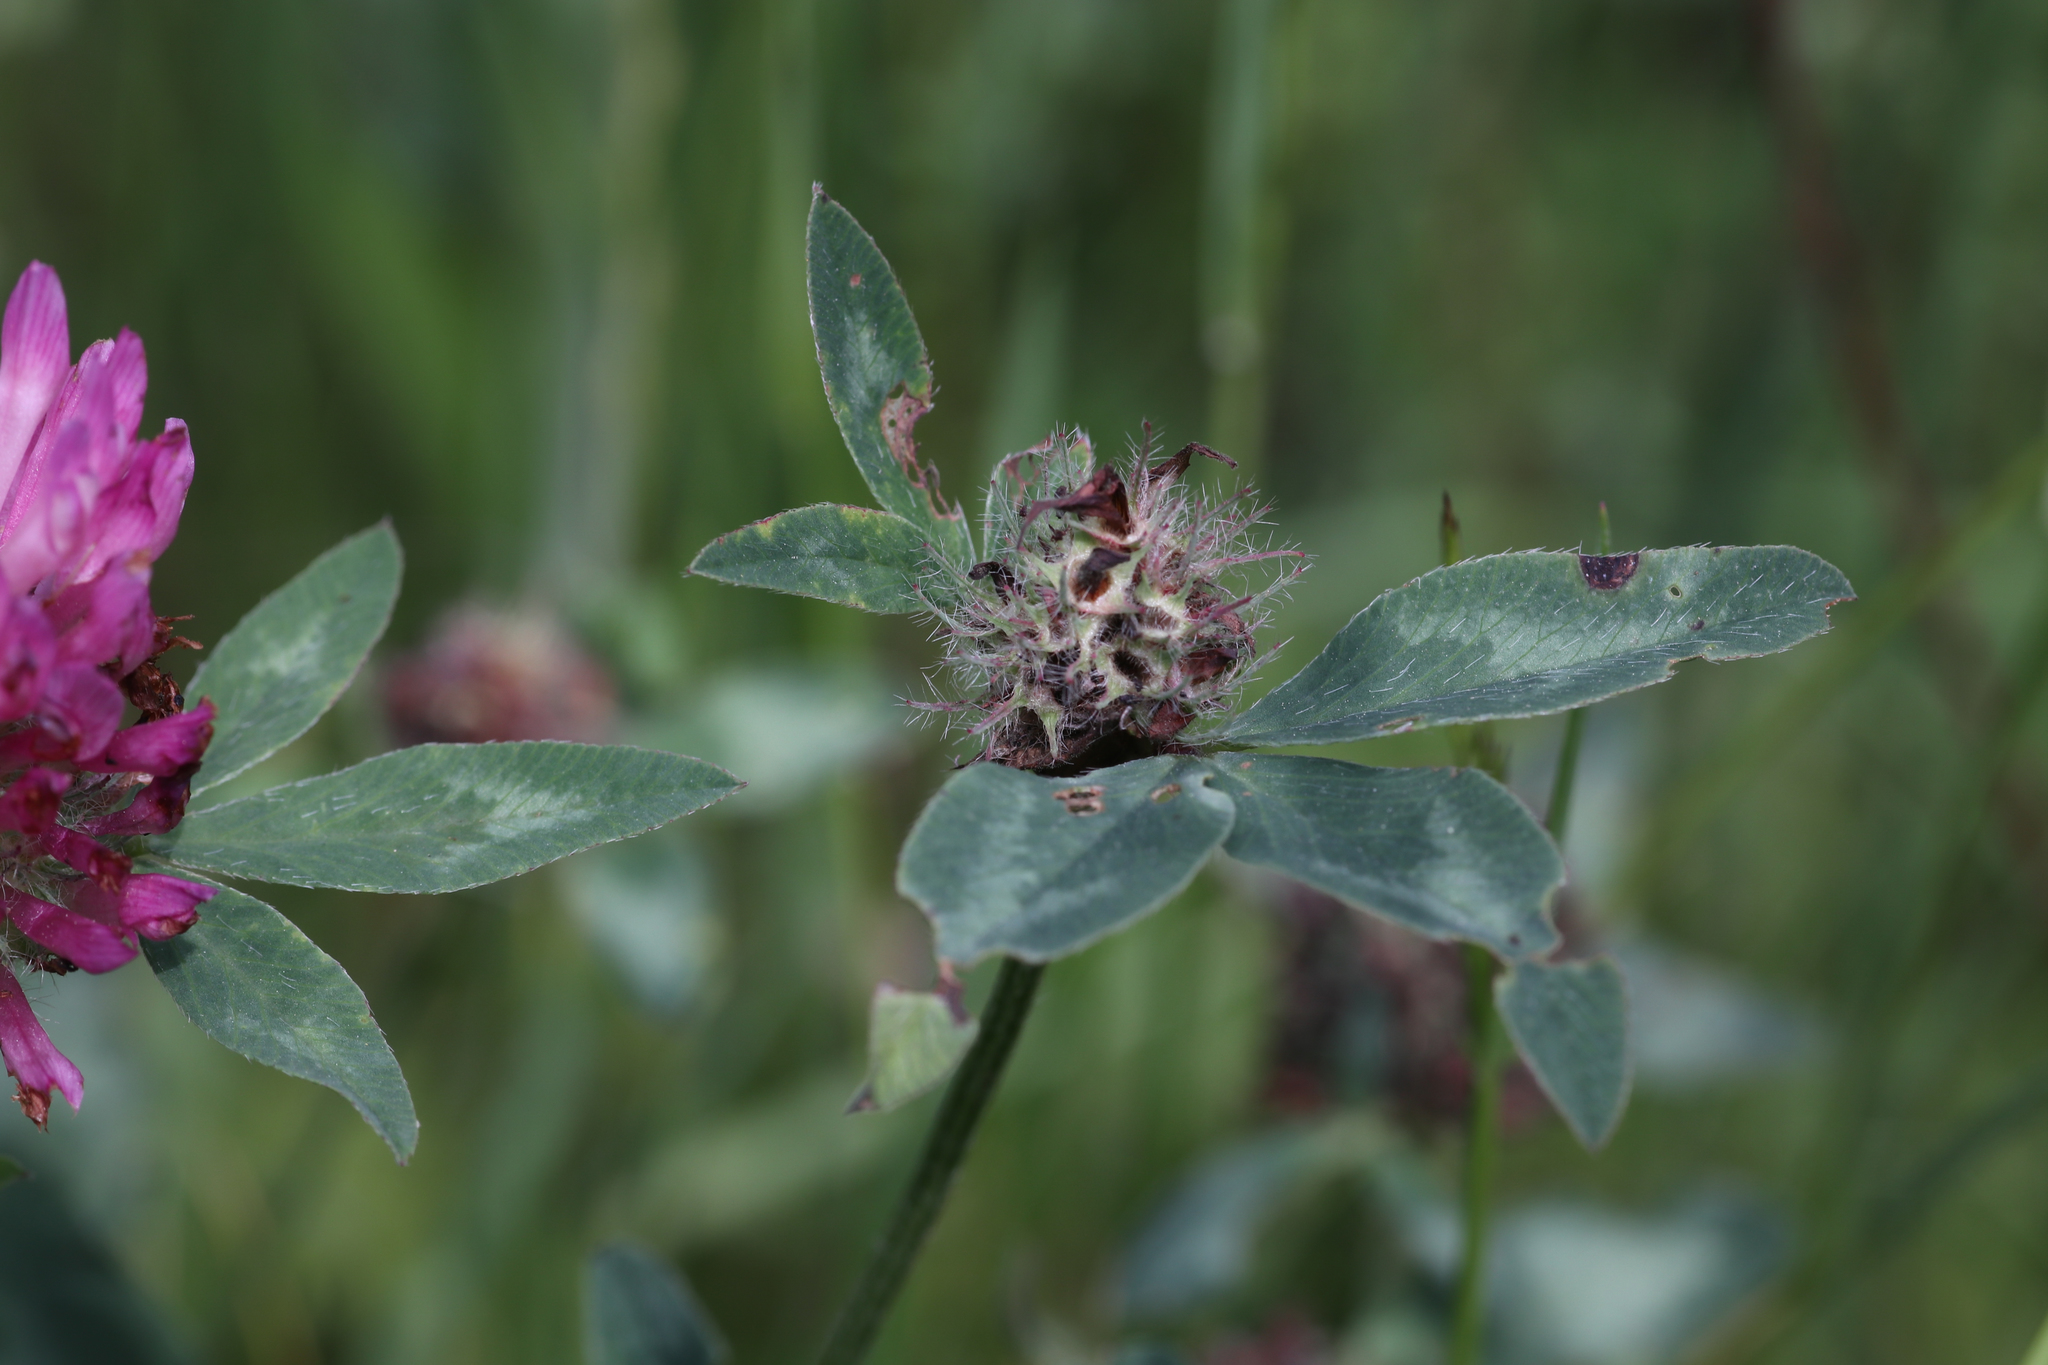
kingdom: Plantae
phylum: Tracheophyta
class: Magnoliopsida
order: Fabales
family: Fabaceae
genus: Trifolium
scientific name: Trifolium pratense
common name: Red clover
